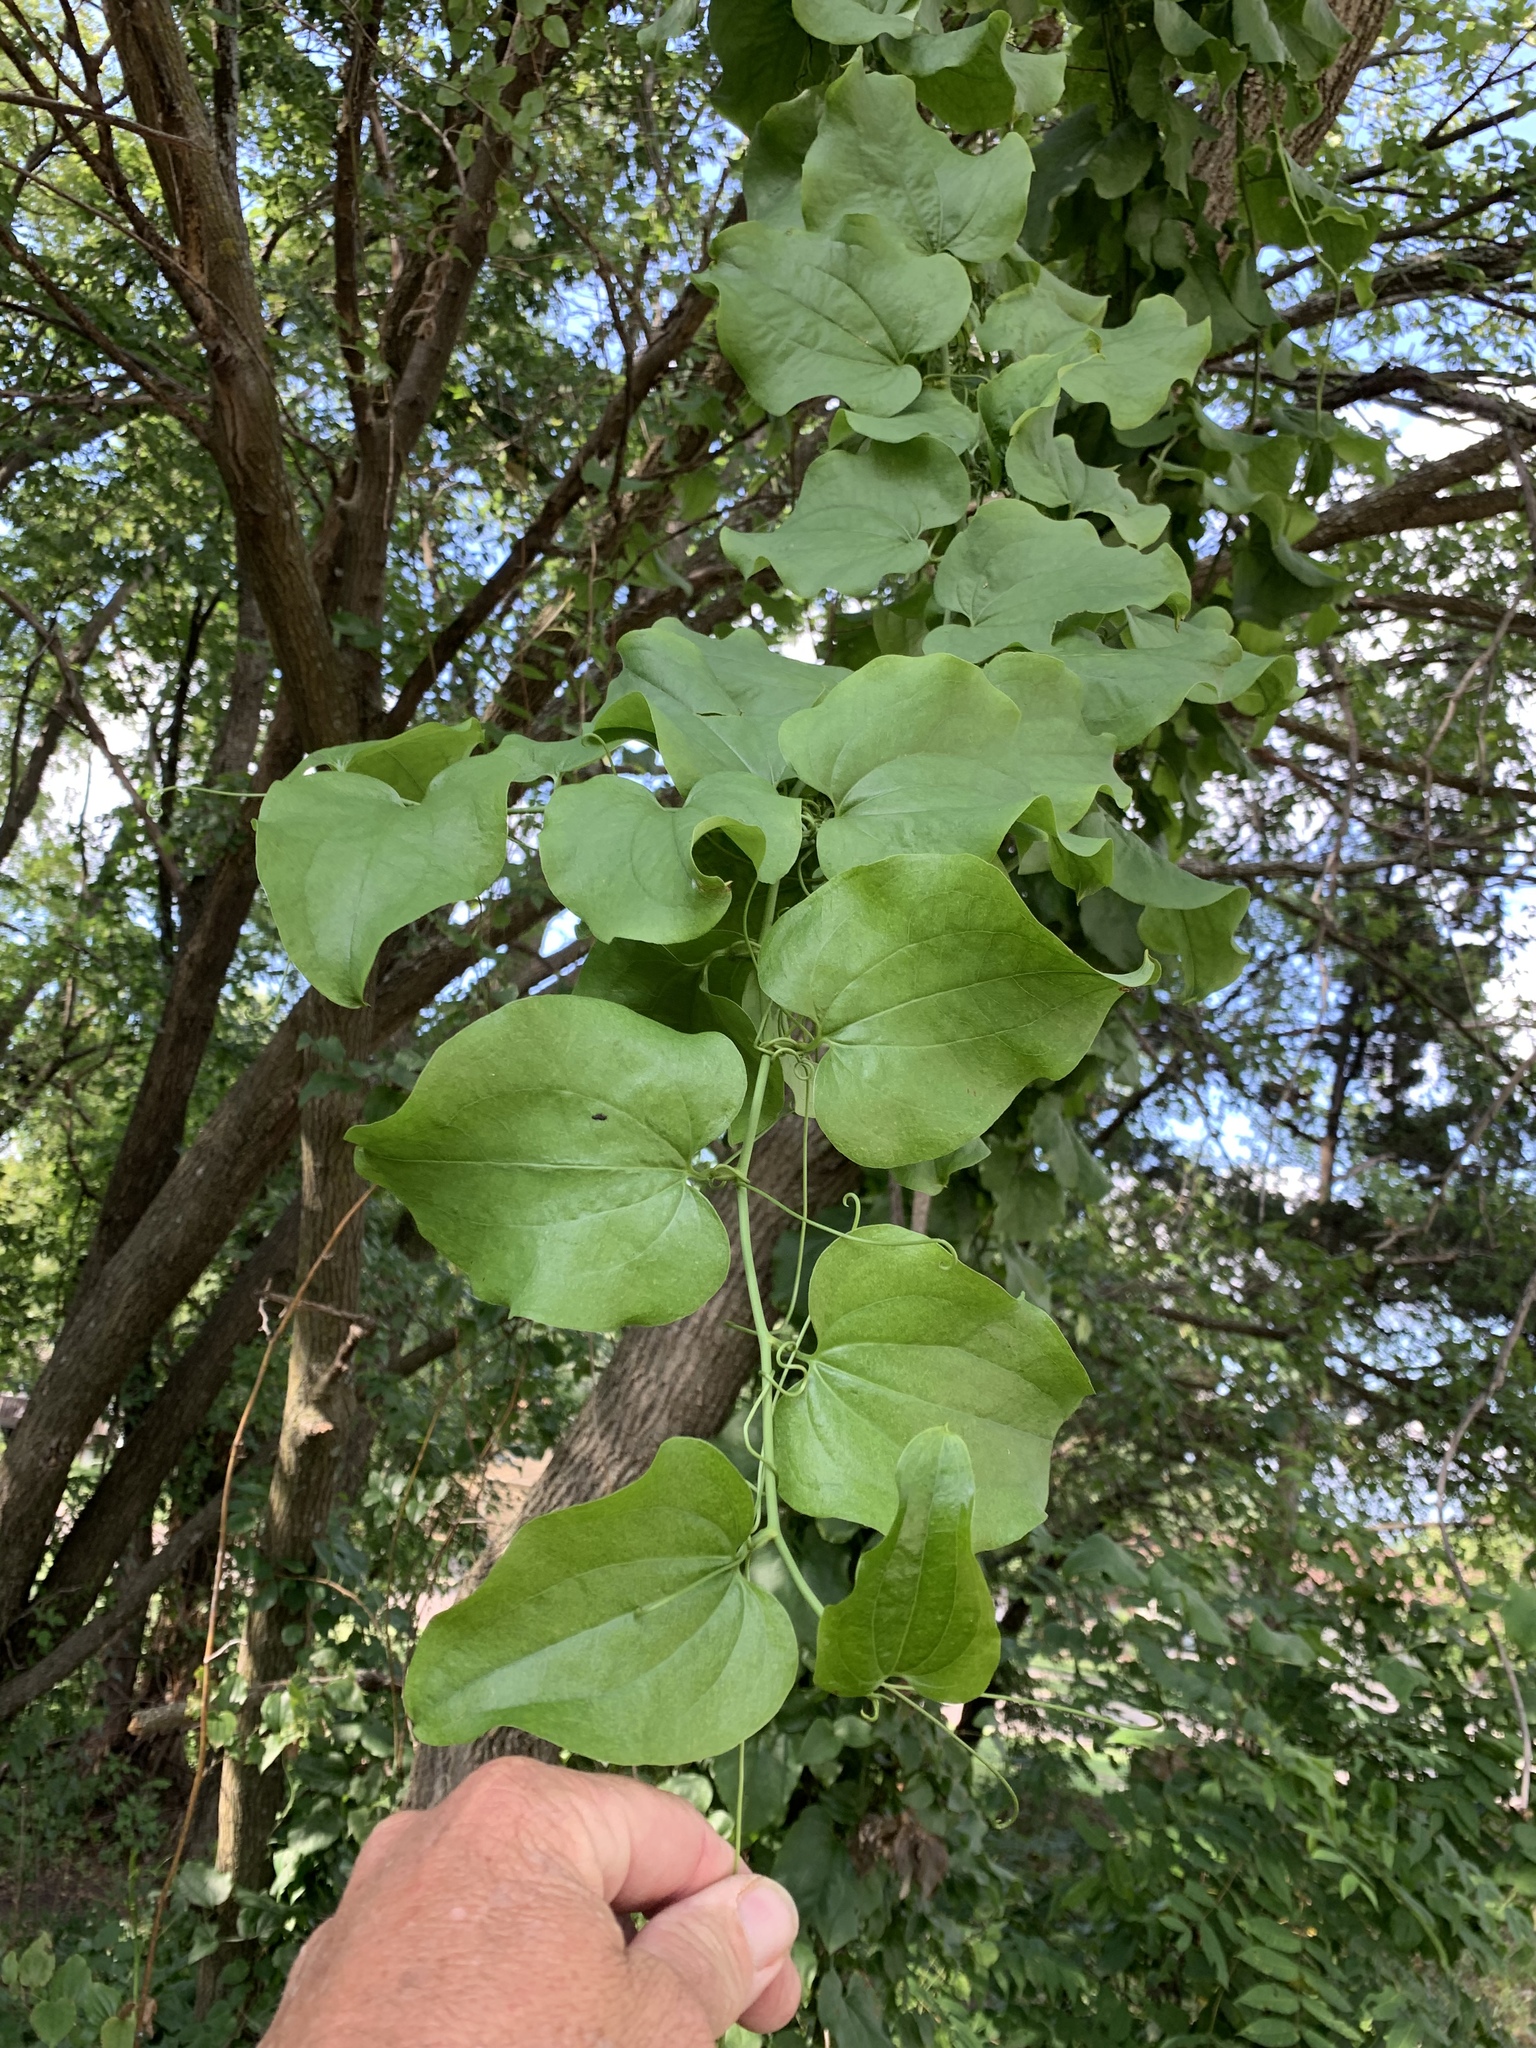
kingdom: Plantae
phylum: Tracheophyta
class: Liliopsida
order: Liliales
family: Smilacaceae
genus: Smilax
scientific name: Smilax tamnoides
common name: Hellfetter
